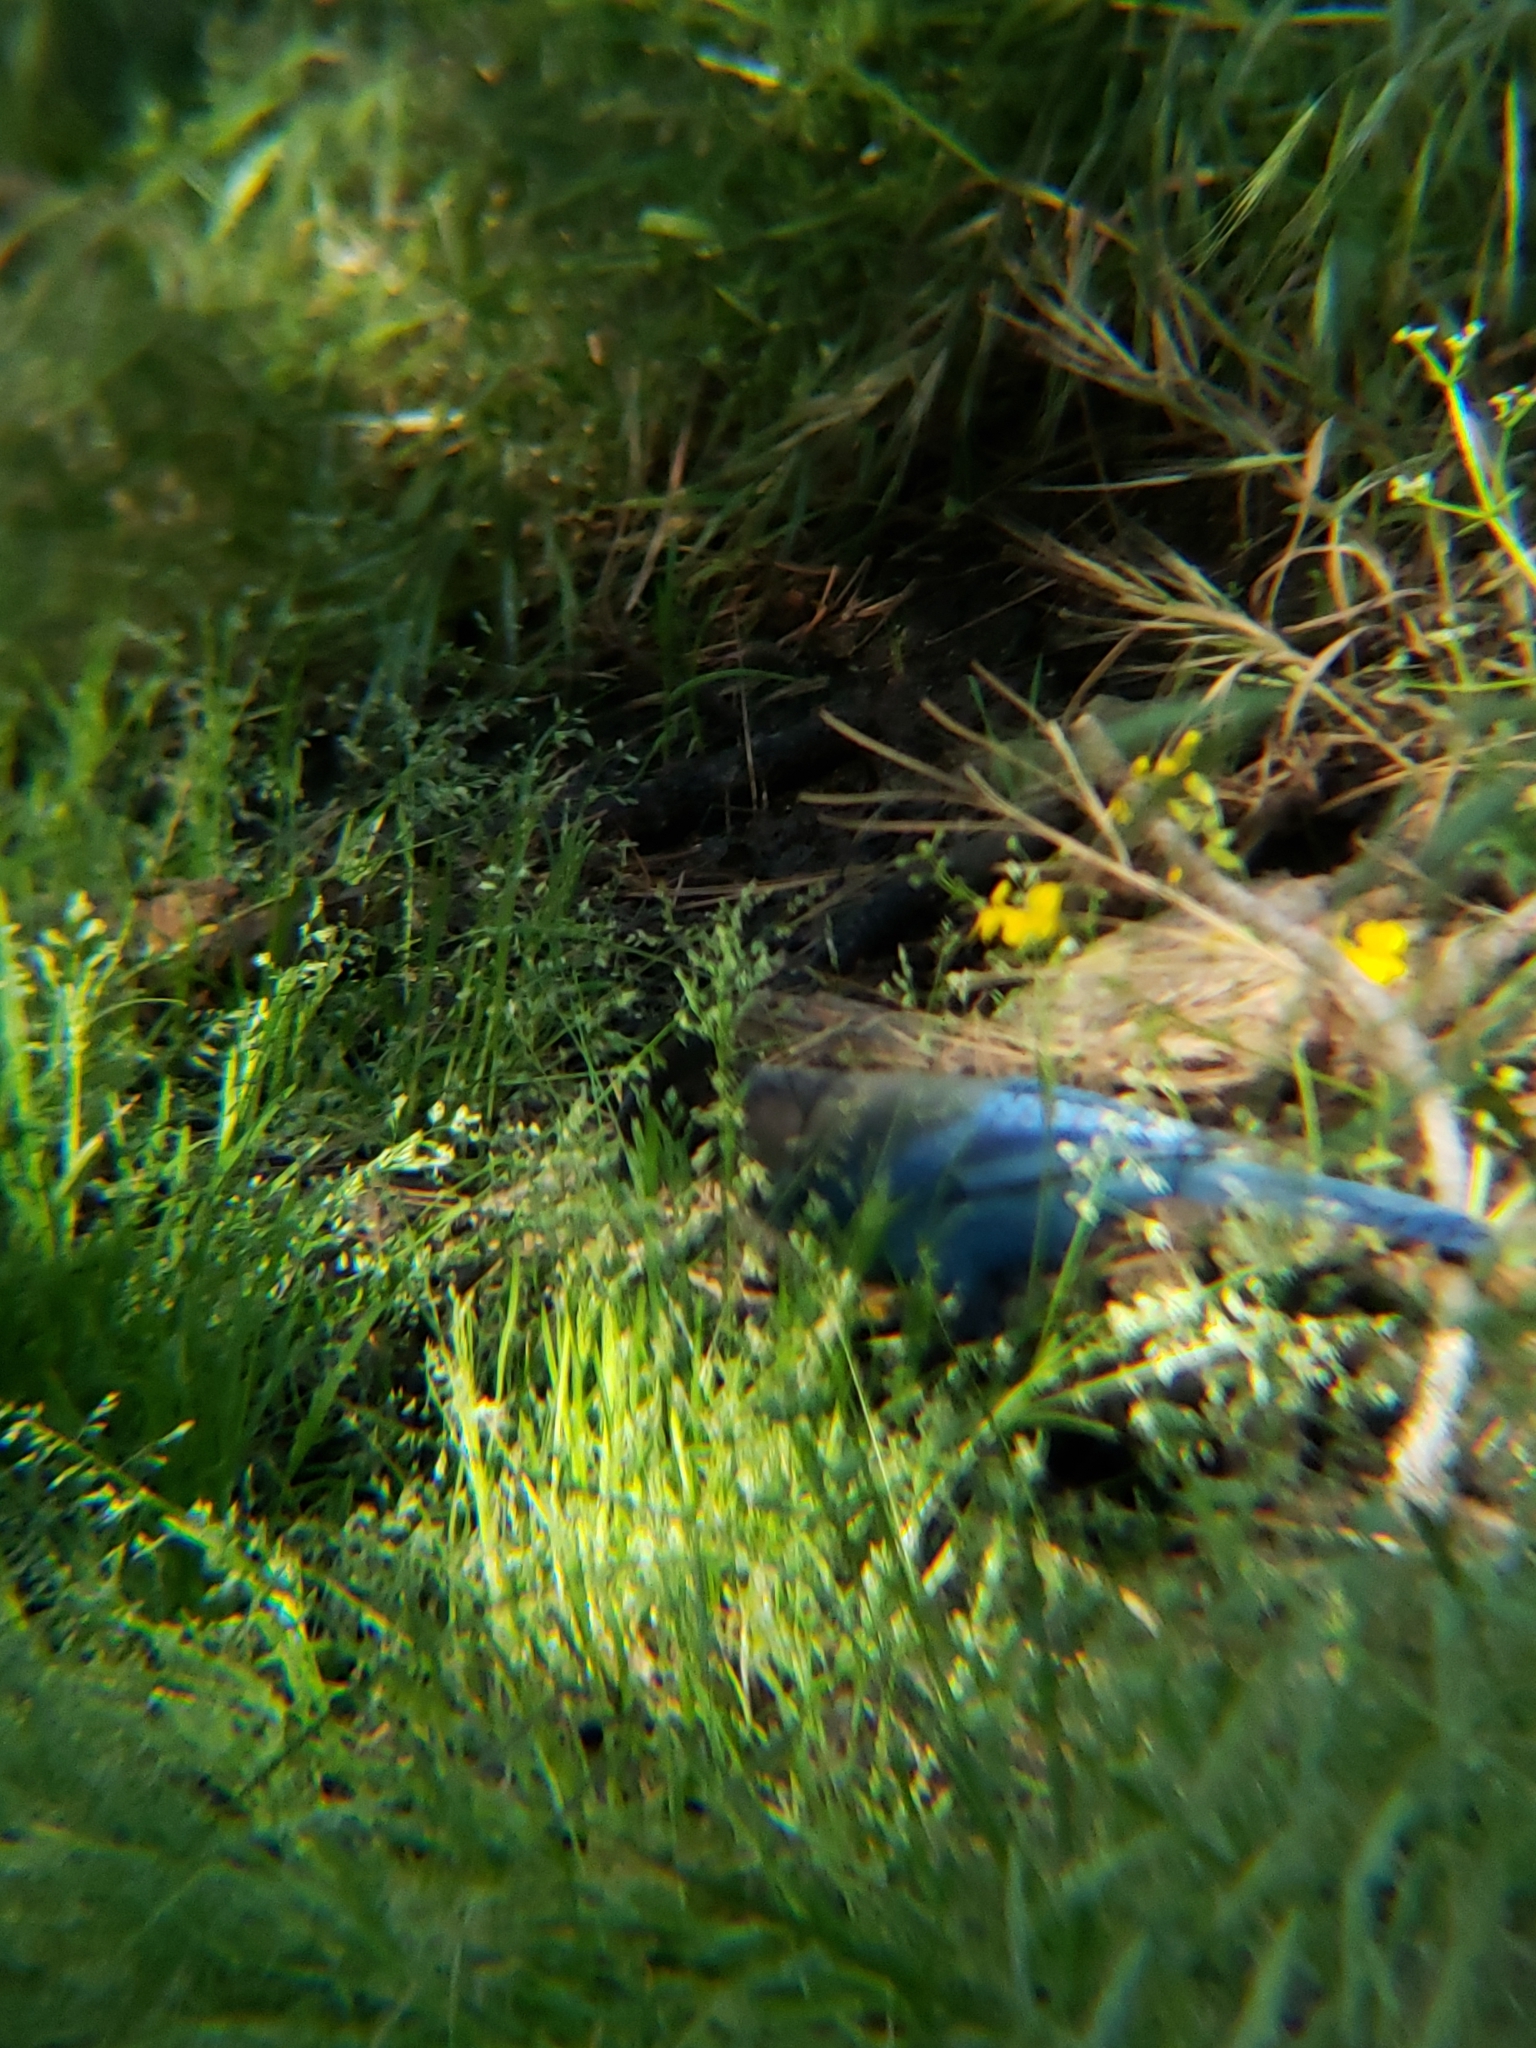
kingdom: Animalia
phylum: Chordata
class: Aves
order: Passeriformes
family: Corvidae
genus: Cyanocitta
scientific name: Cyanocitta stelleri
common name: Steller's jay
